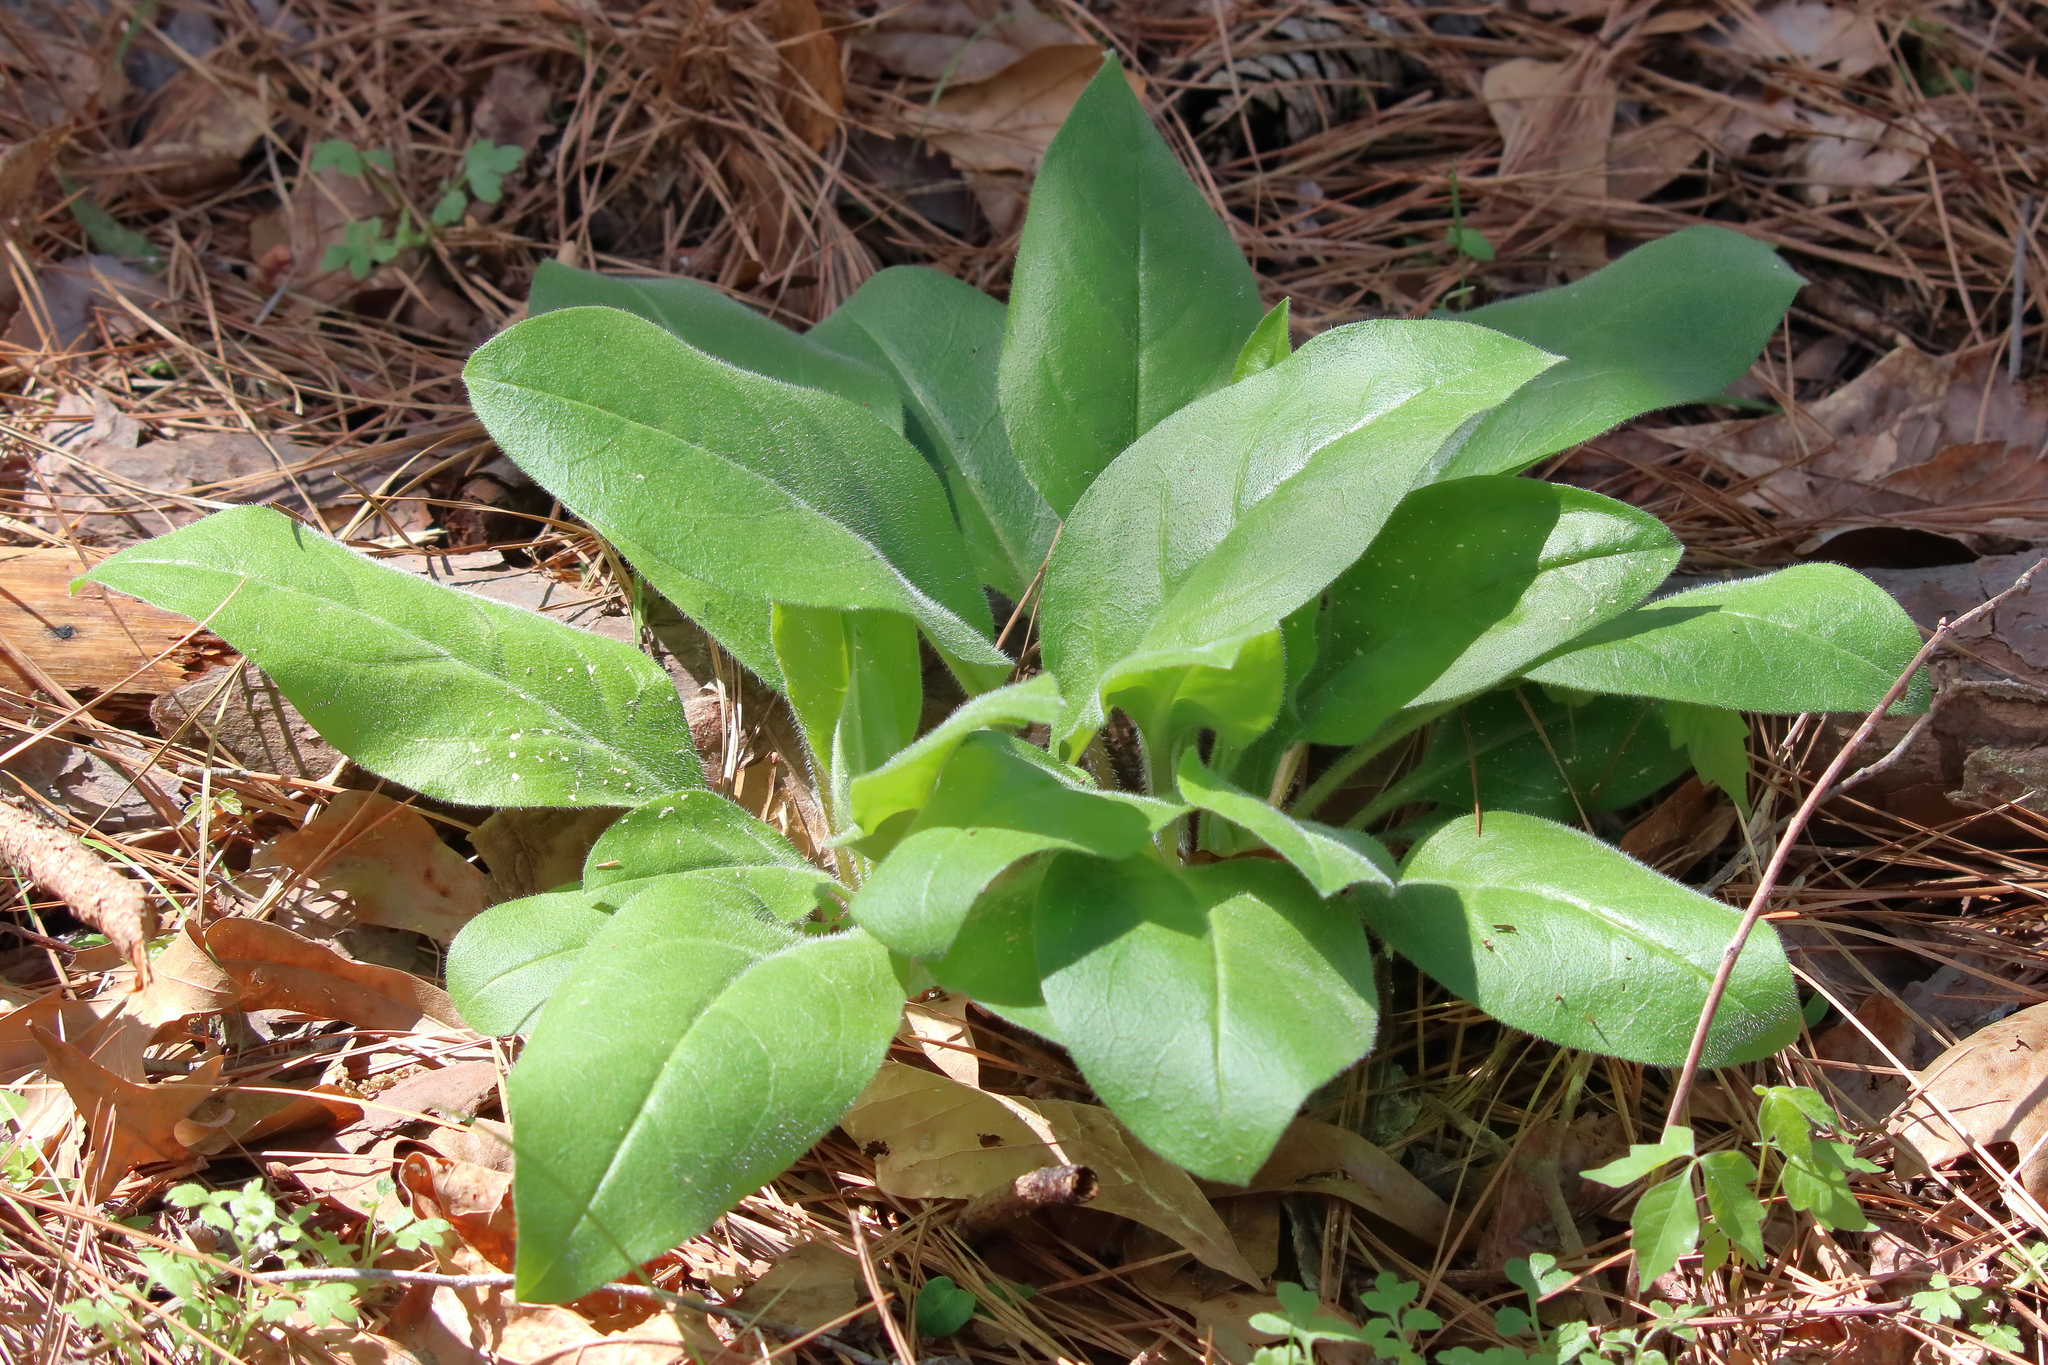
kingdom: Plantae
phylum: Tracheophyta
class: Magnoliopsida
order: Boraginales
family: Boraginaceae
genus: Andersonglossum
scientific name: Andersonglossum virginianum
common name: Wild comfrey
